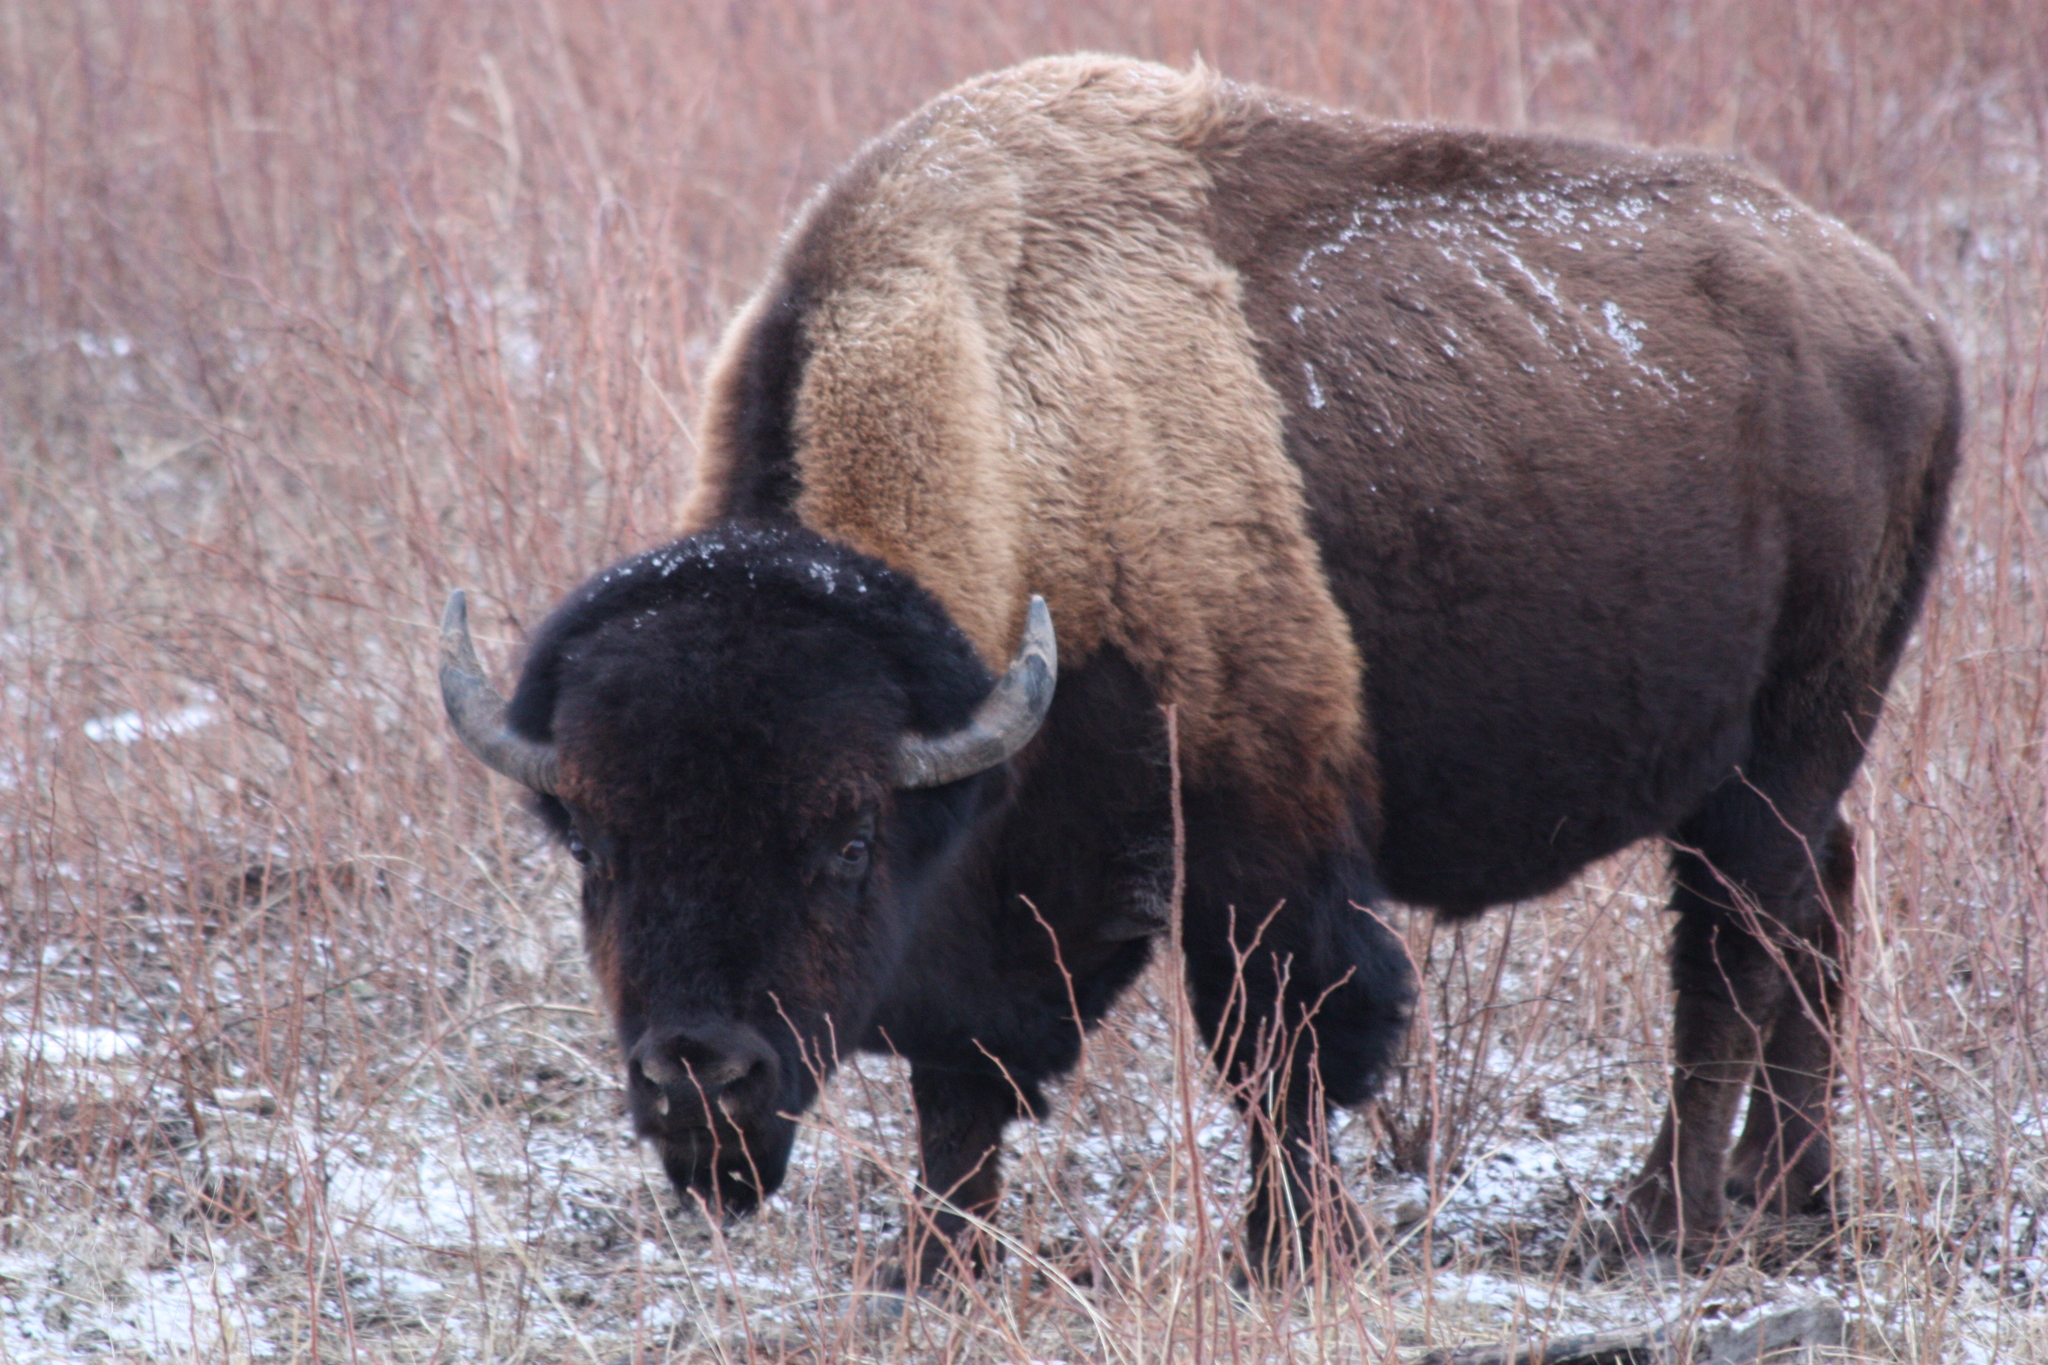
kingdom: Animalia
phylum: Chordata
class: Mammalia
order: Artiodactyla
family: Bovidae
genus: Bison
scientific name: Bison bison
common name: American bison
